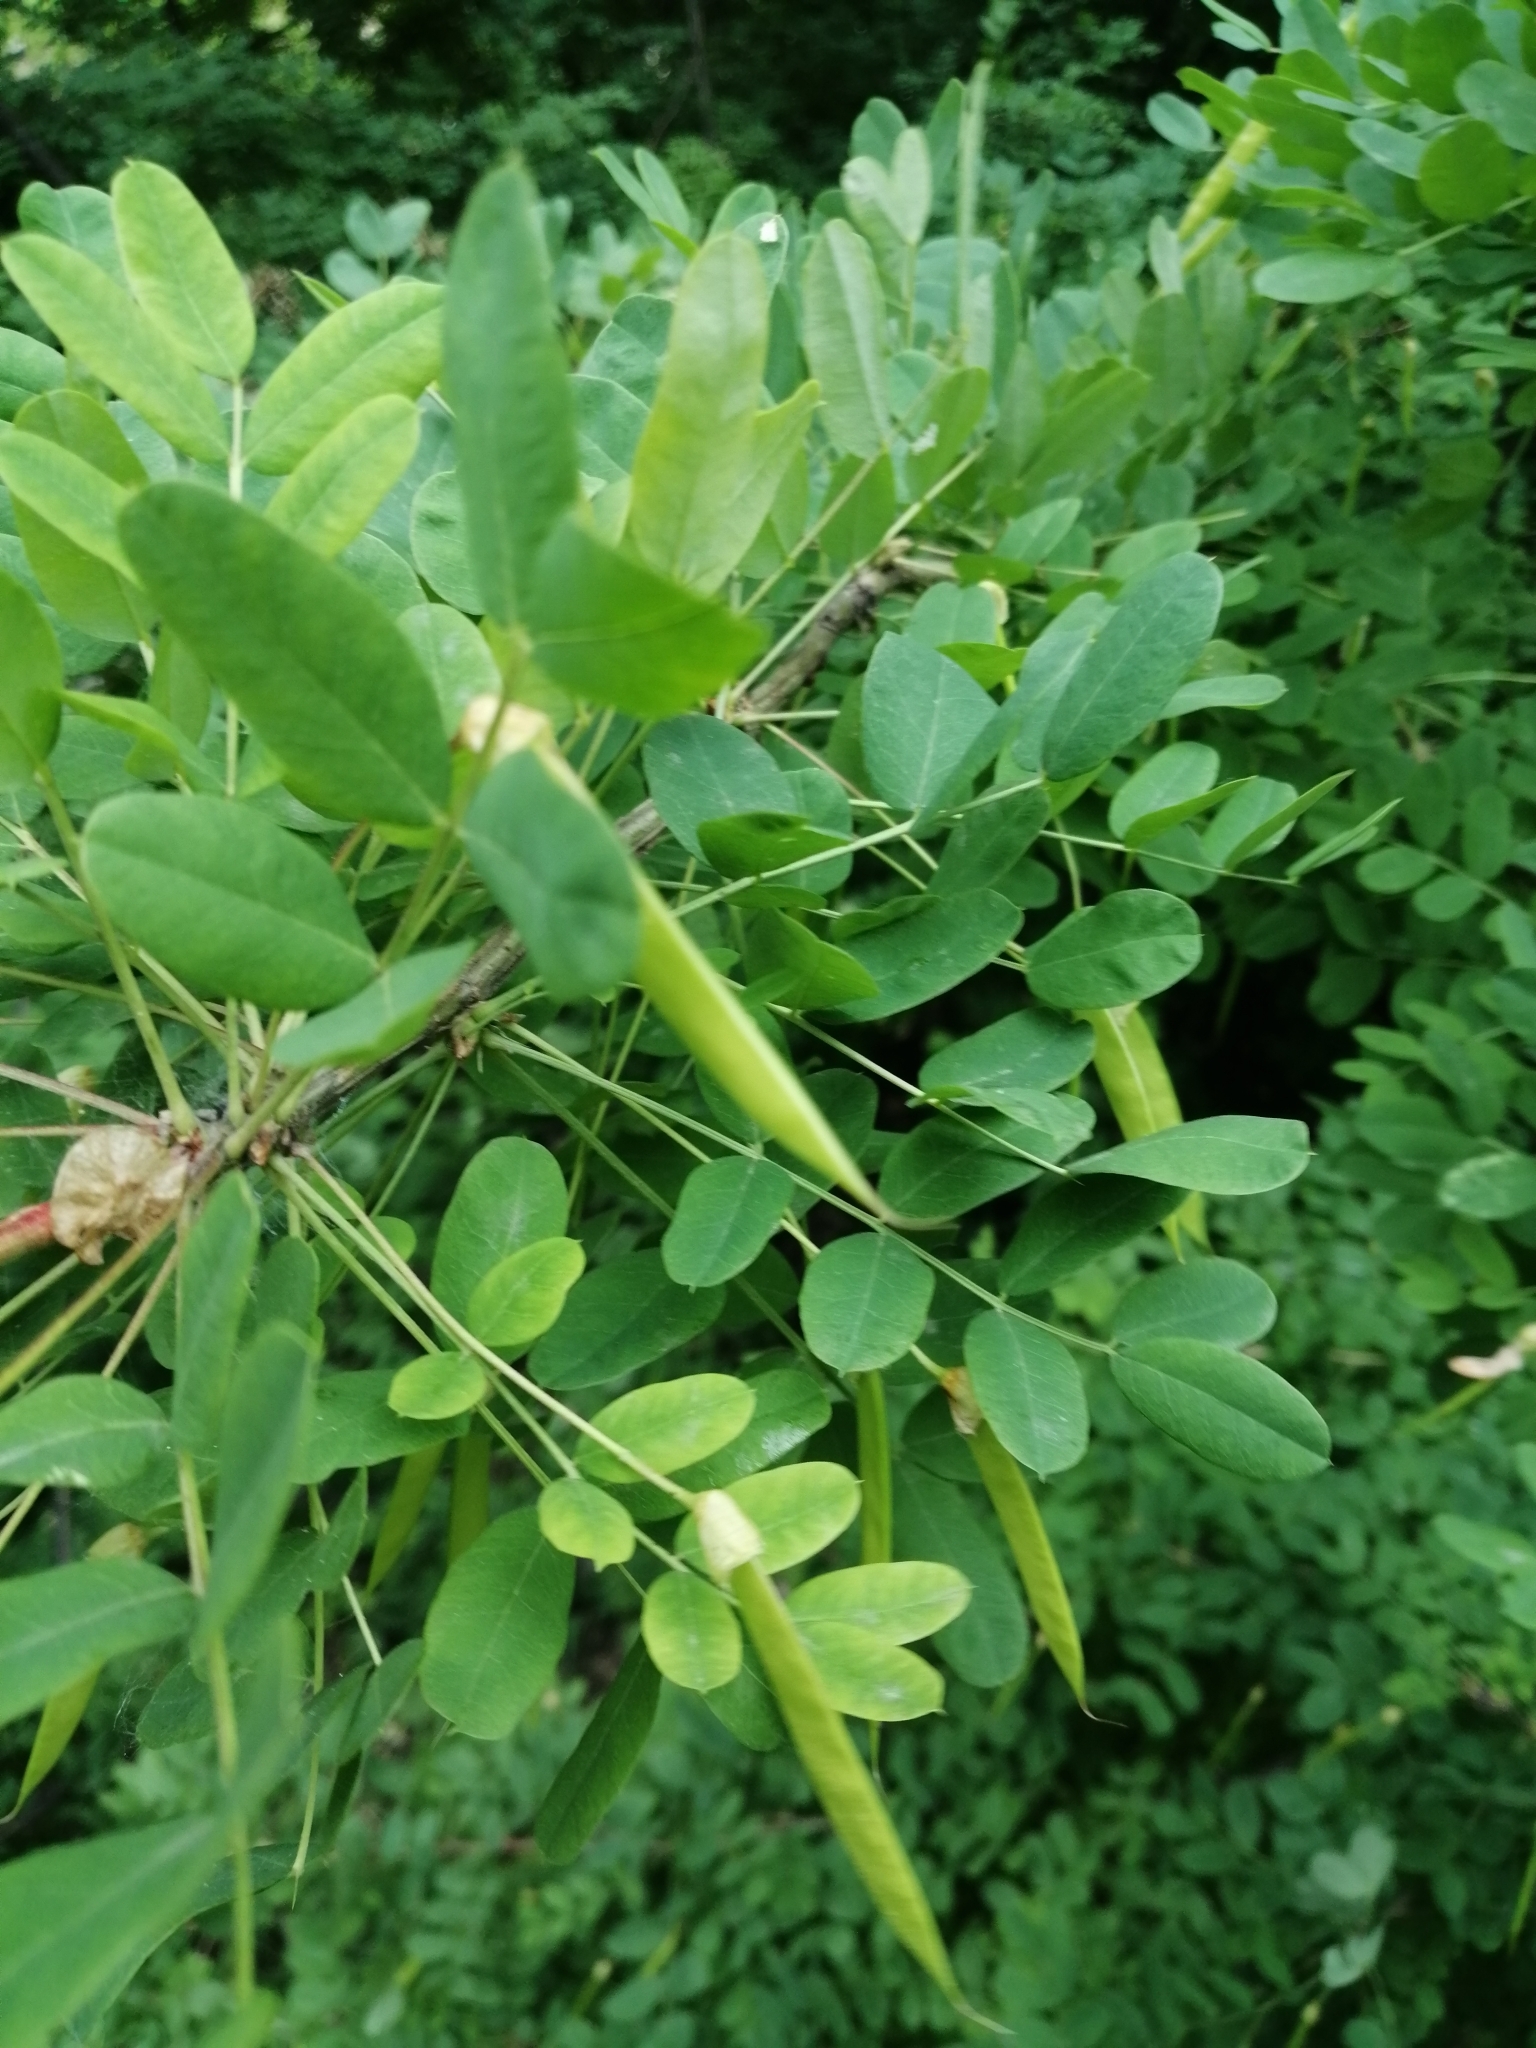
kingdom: Plantae
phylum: Tracheophyta
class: Magnoliopsida
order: Fabales
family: Fabaceae
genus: Caragana
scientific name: Caragana arborescens
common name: Siberian peashrub
